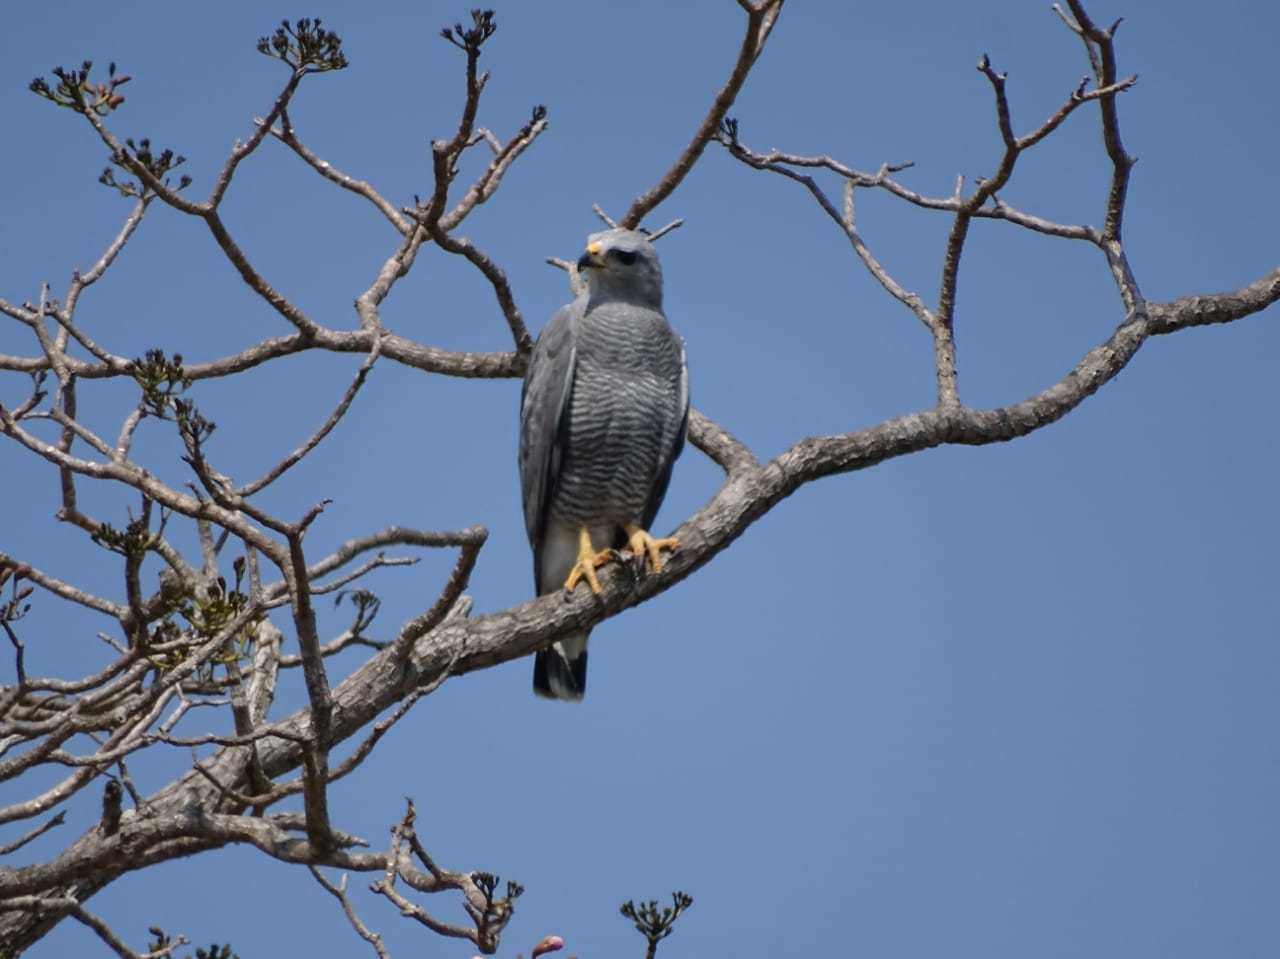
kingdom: Animalia
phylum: Chordata
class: Aves
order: Accipitriformes
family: Accipitridae
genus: Buteo
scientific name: Buteo nitidus
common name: Grey-lined hawk
